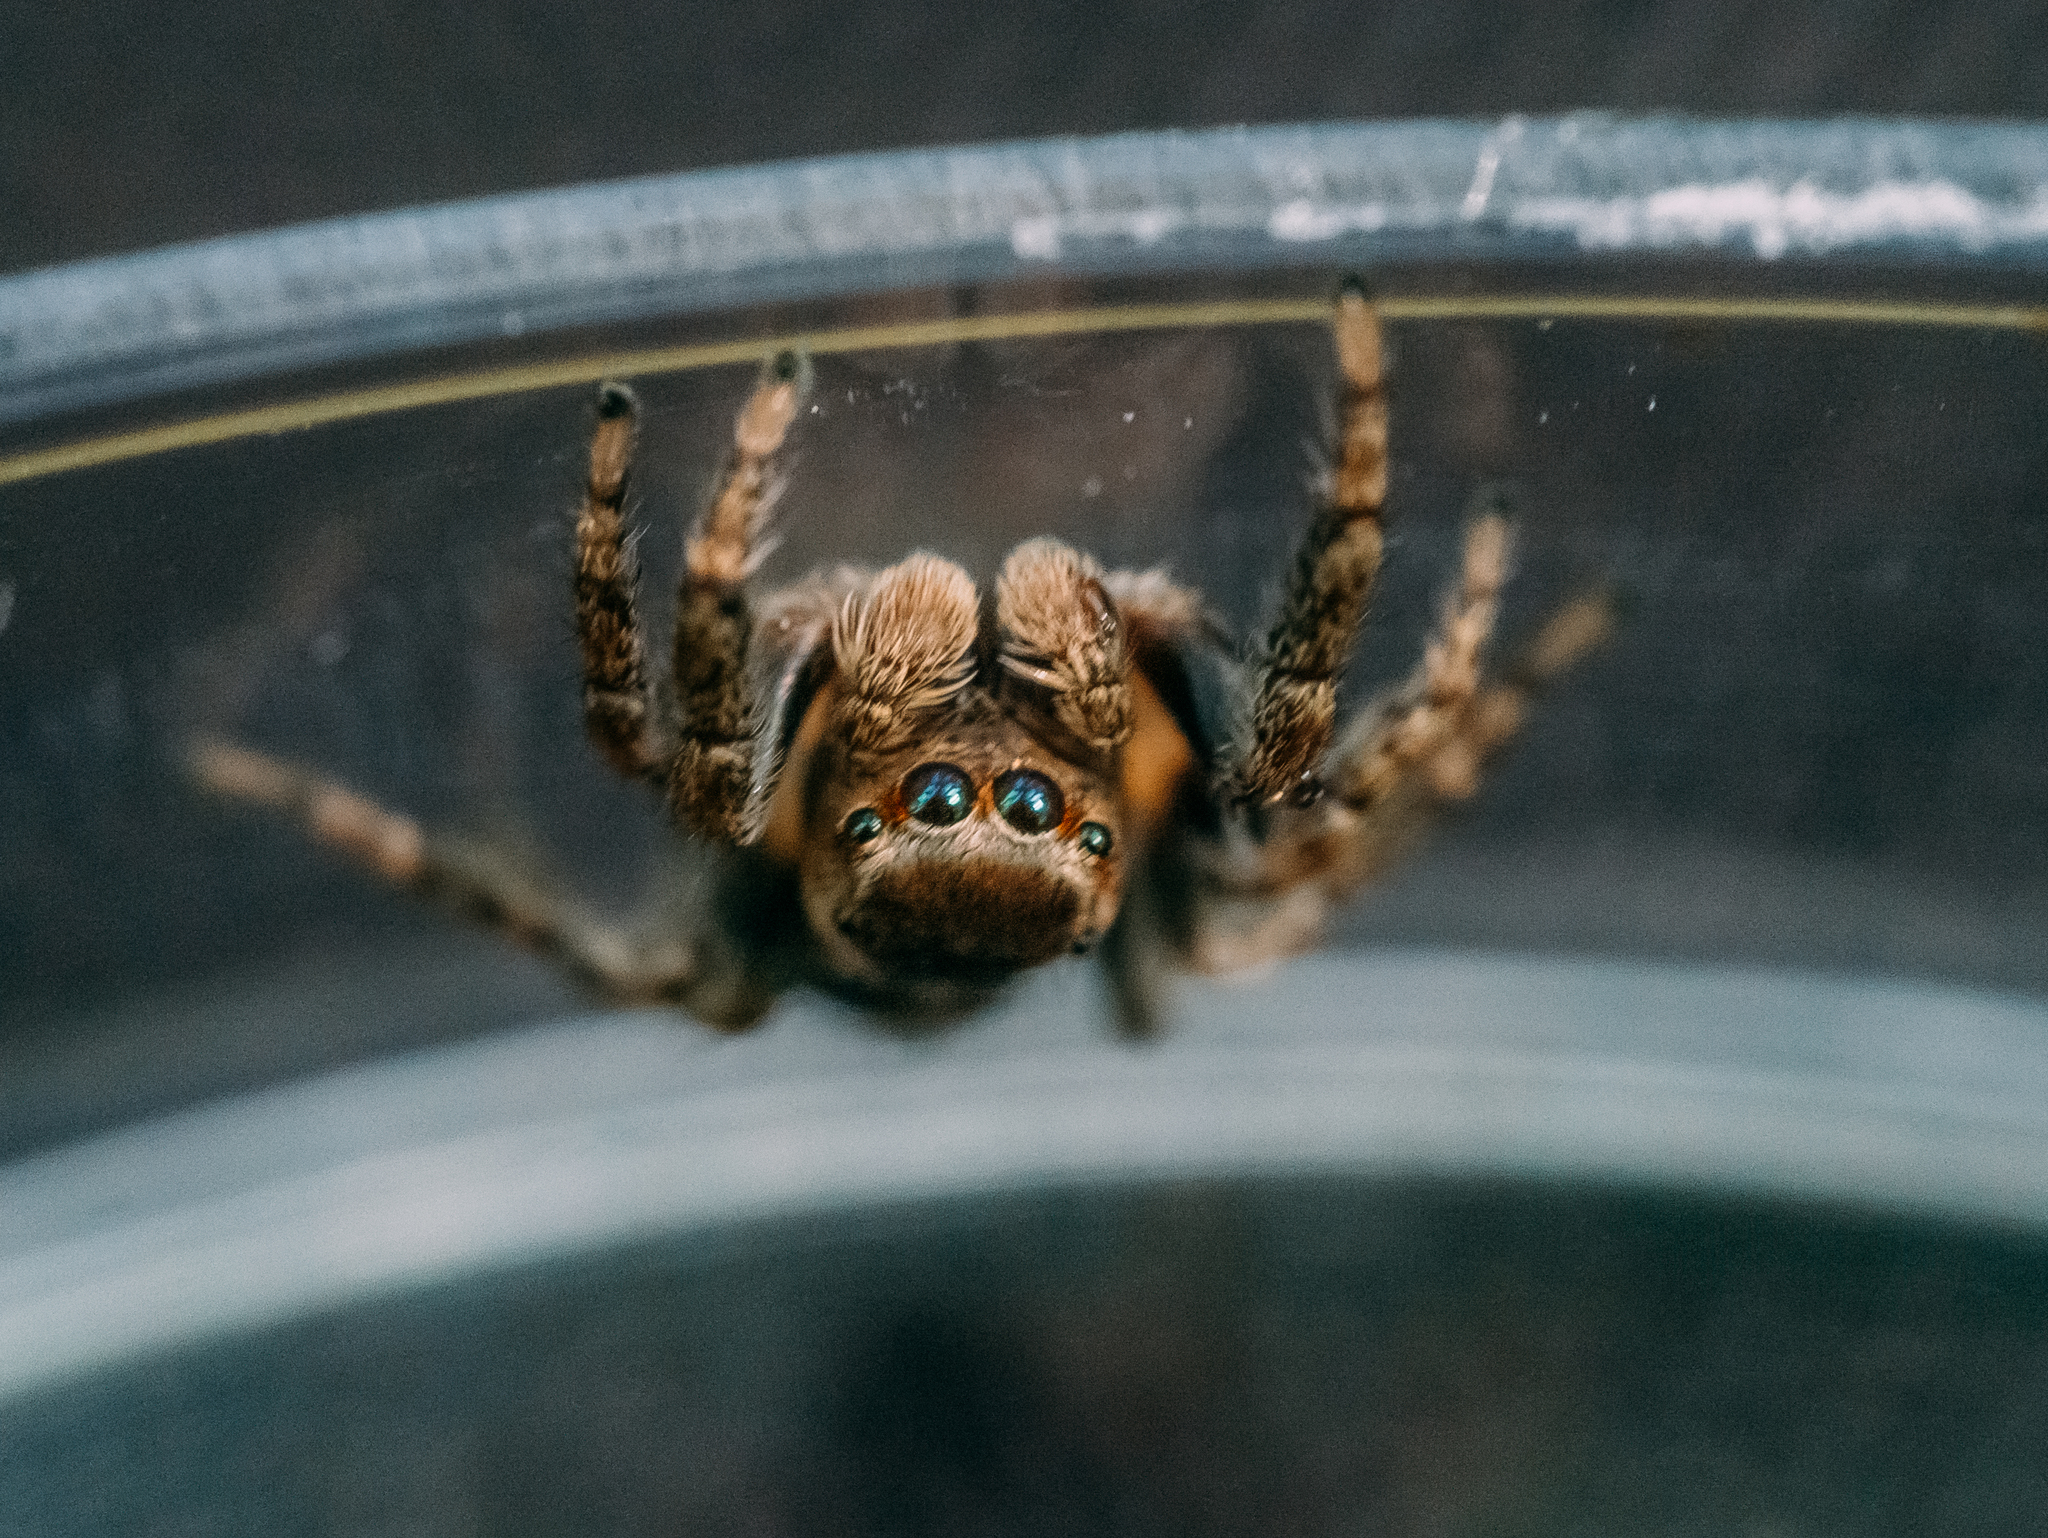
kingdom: Animalia
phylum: Arthropoda
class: Arachnida
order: Araneae
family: Salticidae
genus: Evarcha
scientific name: Evarcha falcata
